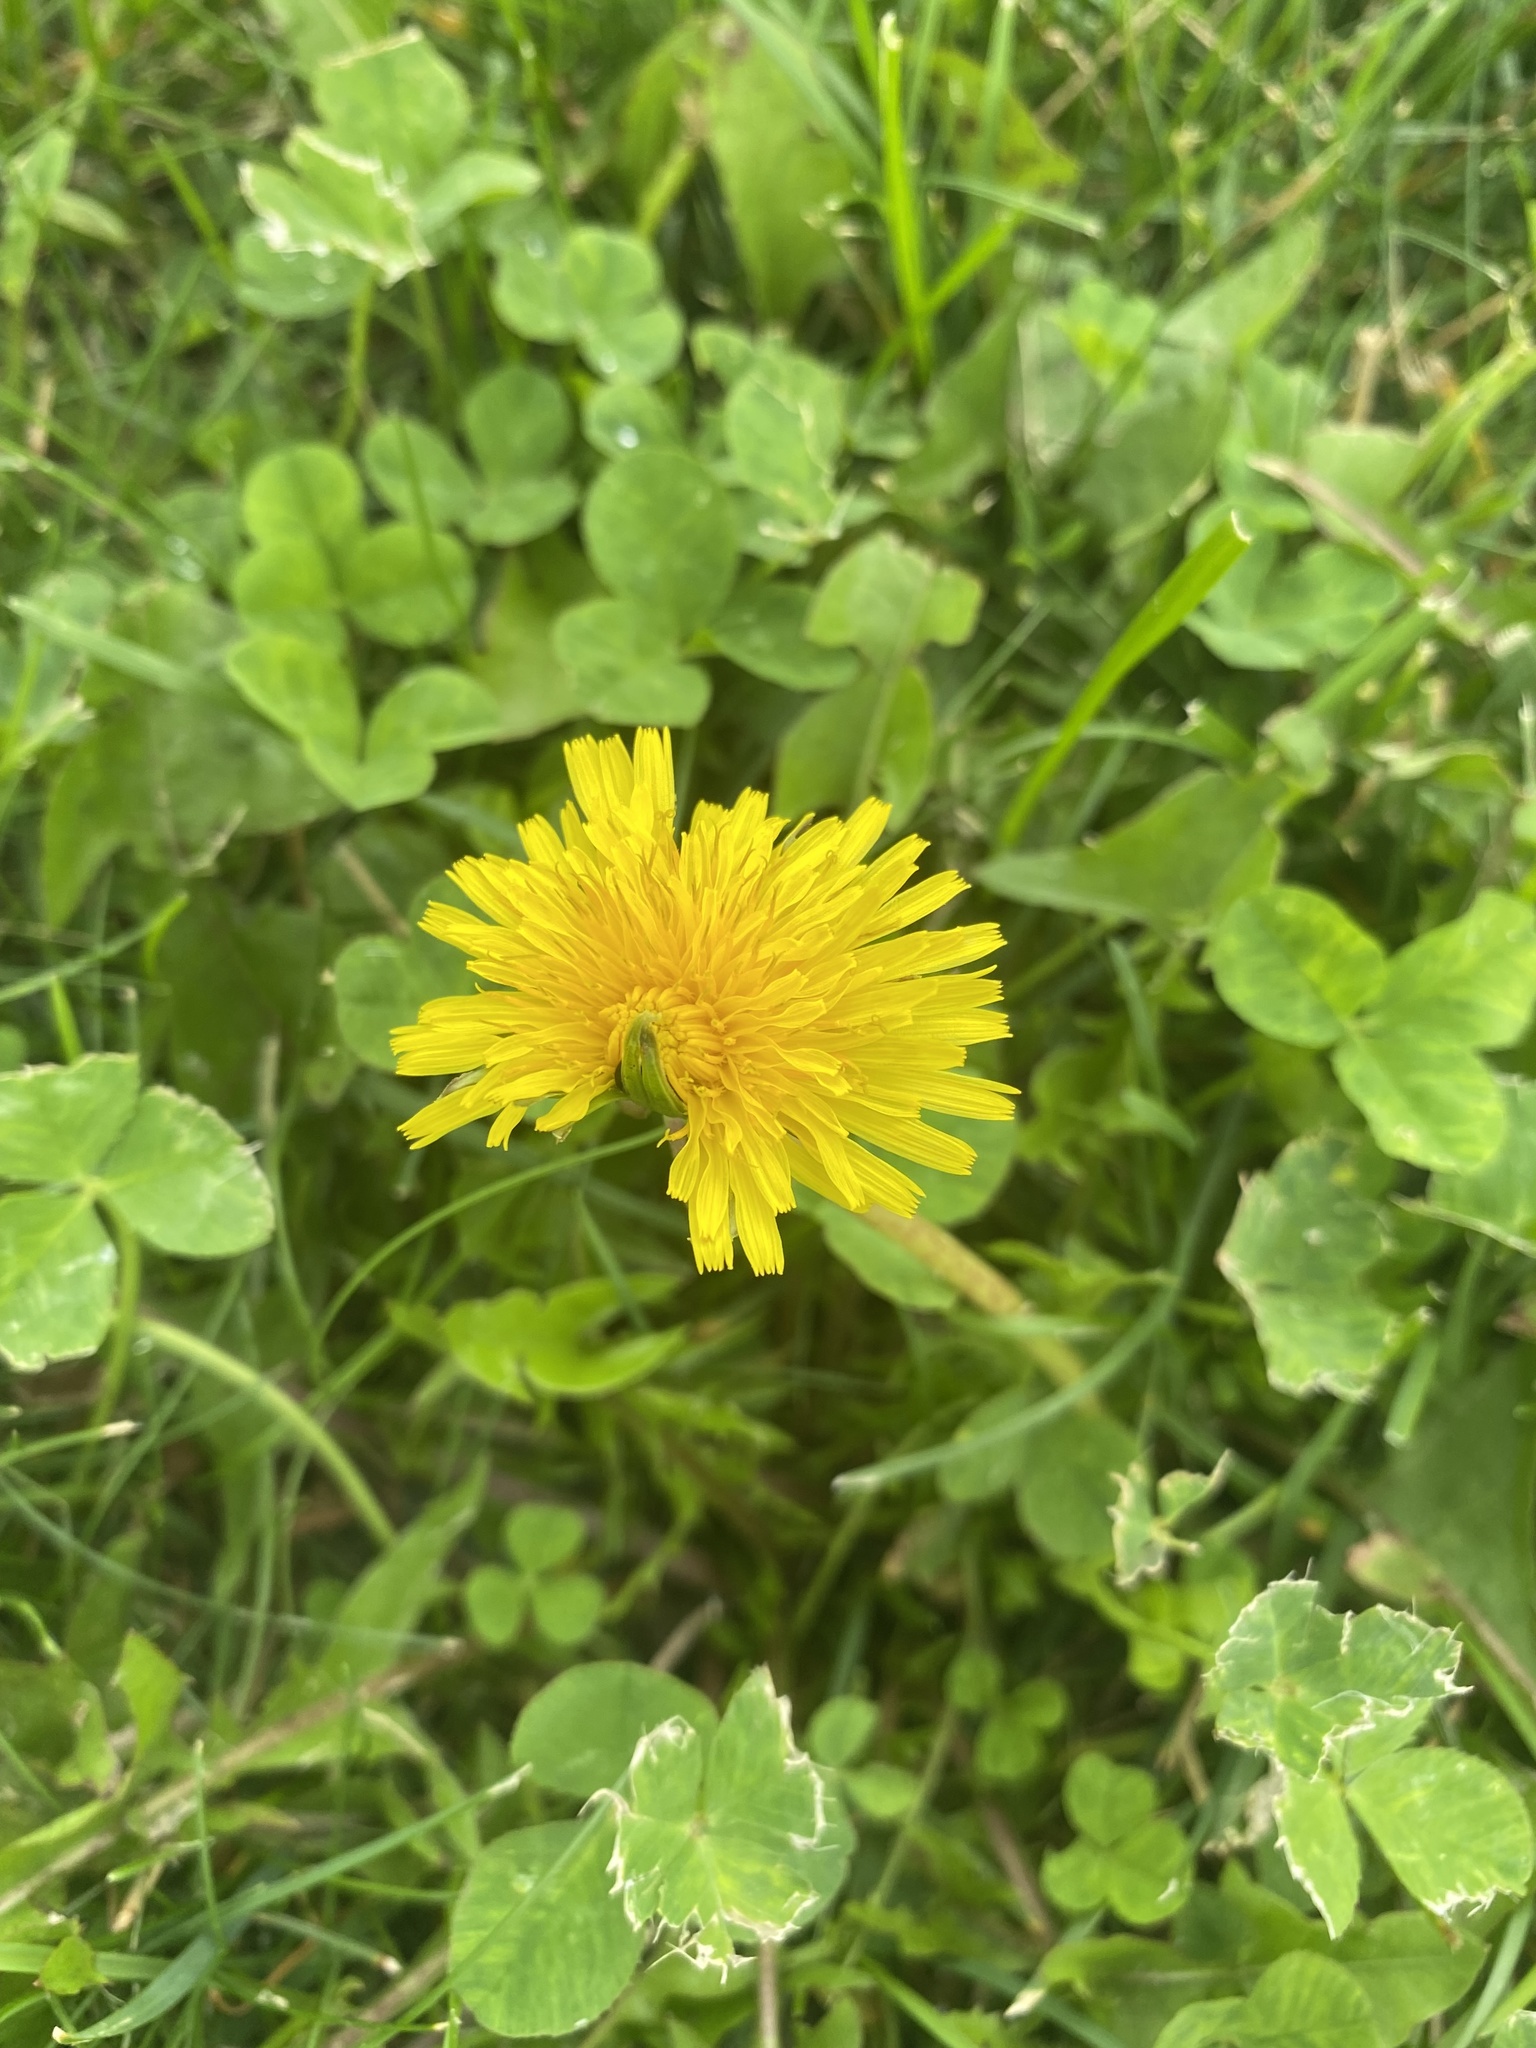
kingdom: Plantae
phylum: Tracheophyta
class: Magnoliopsida
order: Asterales
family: Asteraceae
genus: Taraxacum
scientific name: Taraxacum officinale
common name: Common dandelion
